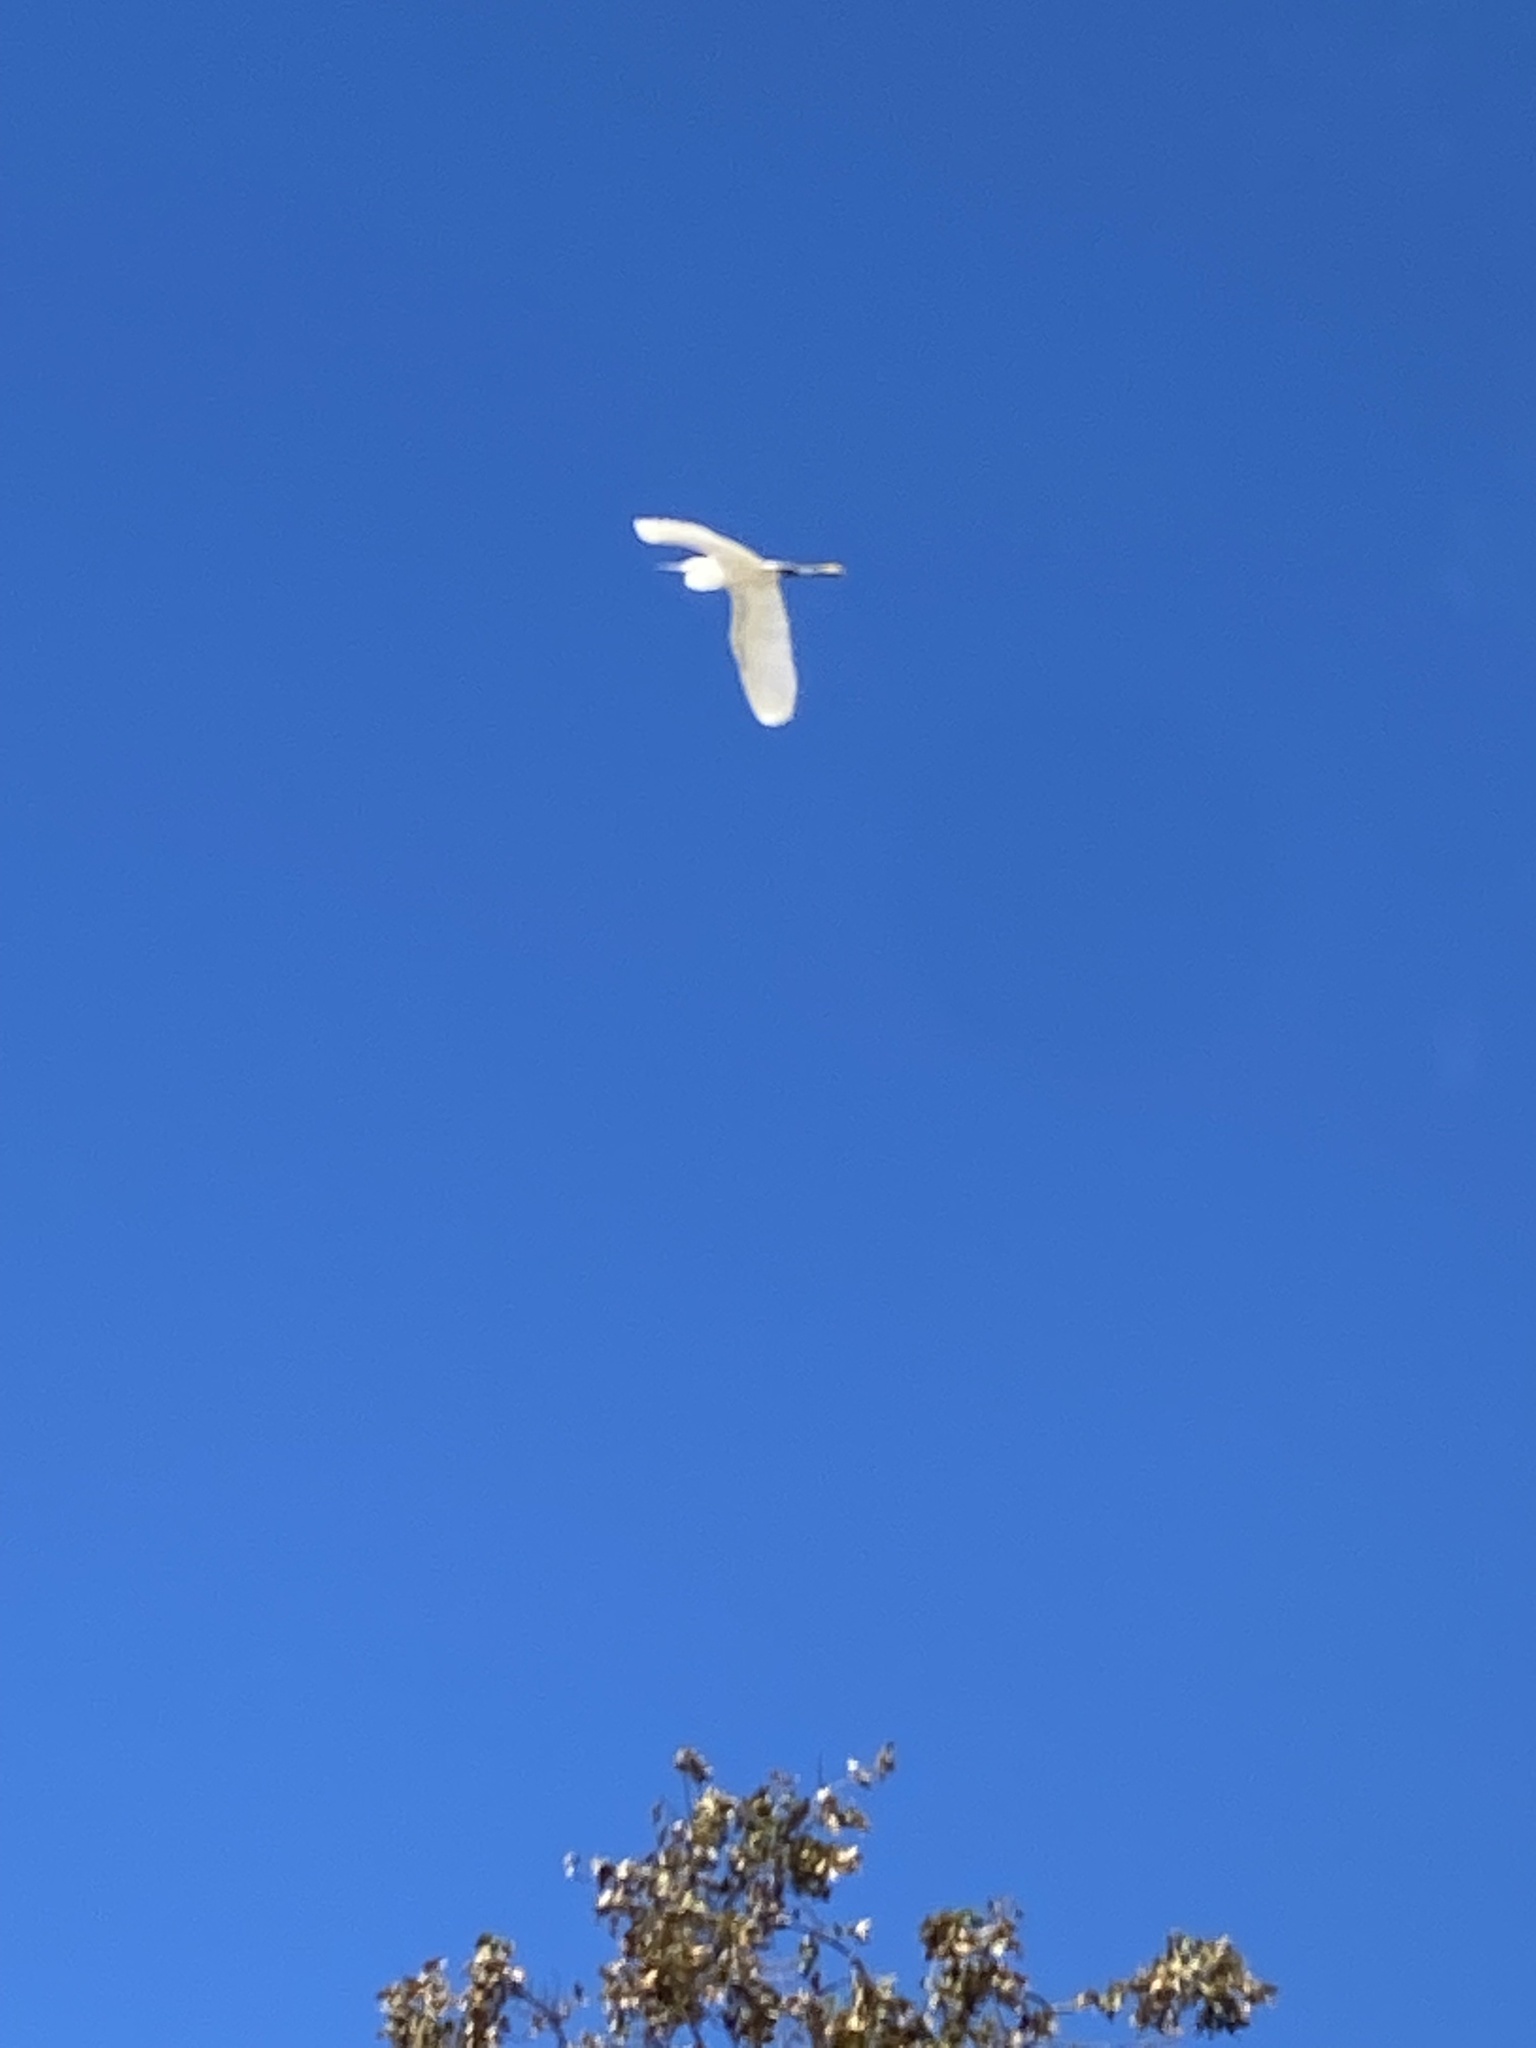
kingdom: Animalia
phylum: Chordata
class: Aves
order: Pelecaniformes
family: Ardeidae
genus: Egretta
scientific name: Egretta thula
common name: Snowy egret
